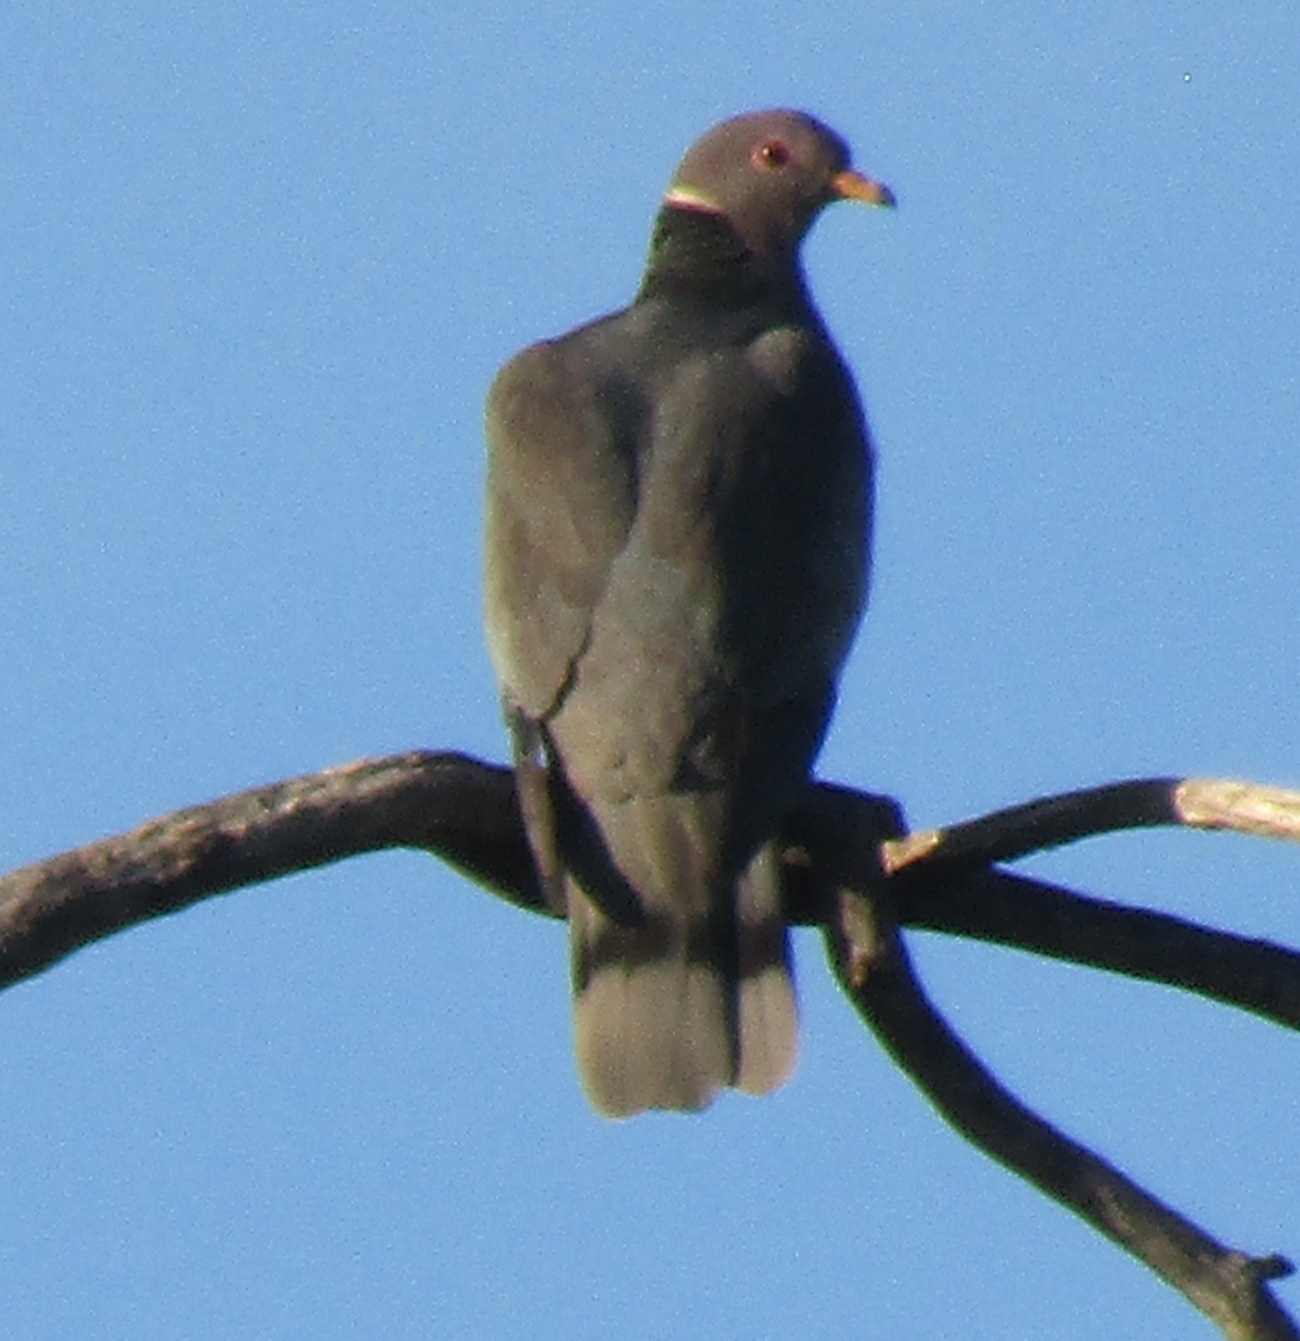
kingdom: Animalia
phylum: Chordata
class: Aves
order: Columbiformes
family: Columbidae
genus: Patagioenas
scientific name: Patagioenas fasciata
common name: Band-tailed pigeon
